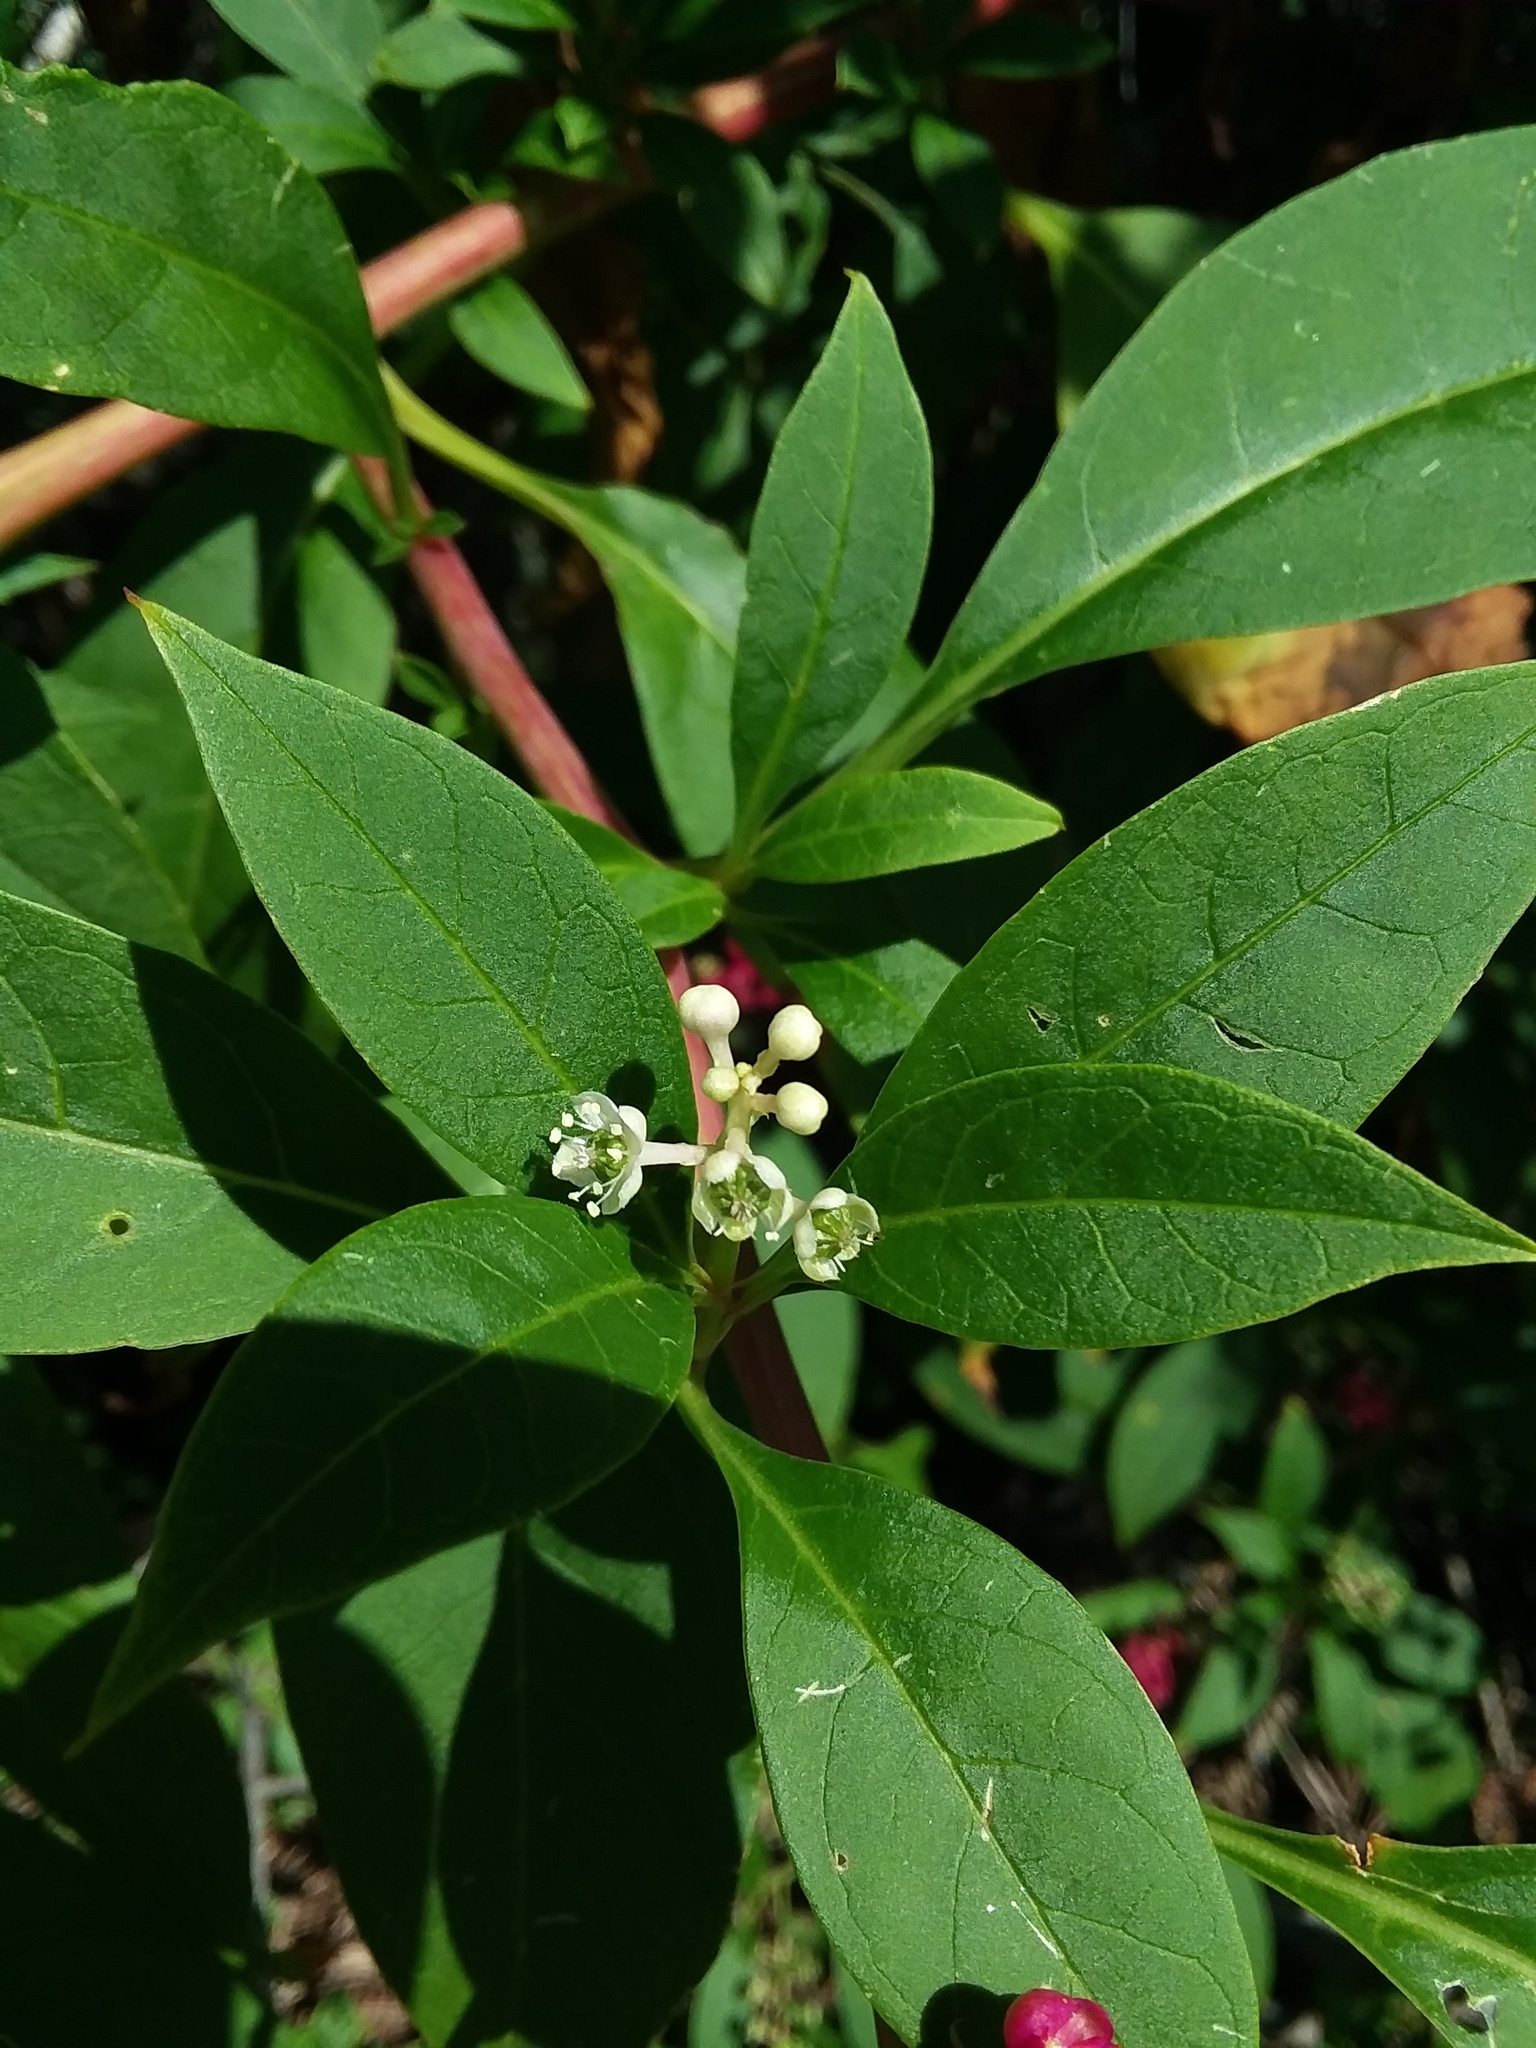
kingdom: Plantae
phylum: Tracheophyta
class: Magnoliopsida
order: Caryophyllales
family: Phytolaccaceae
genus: Phytolacca
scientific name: Phytolacca americana
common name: American pokeweed
